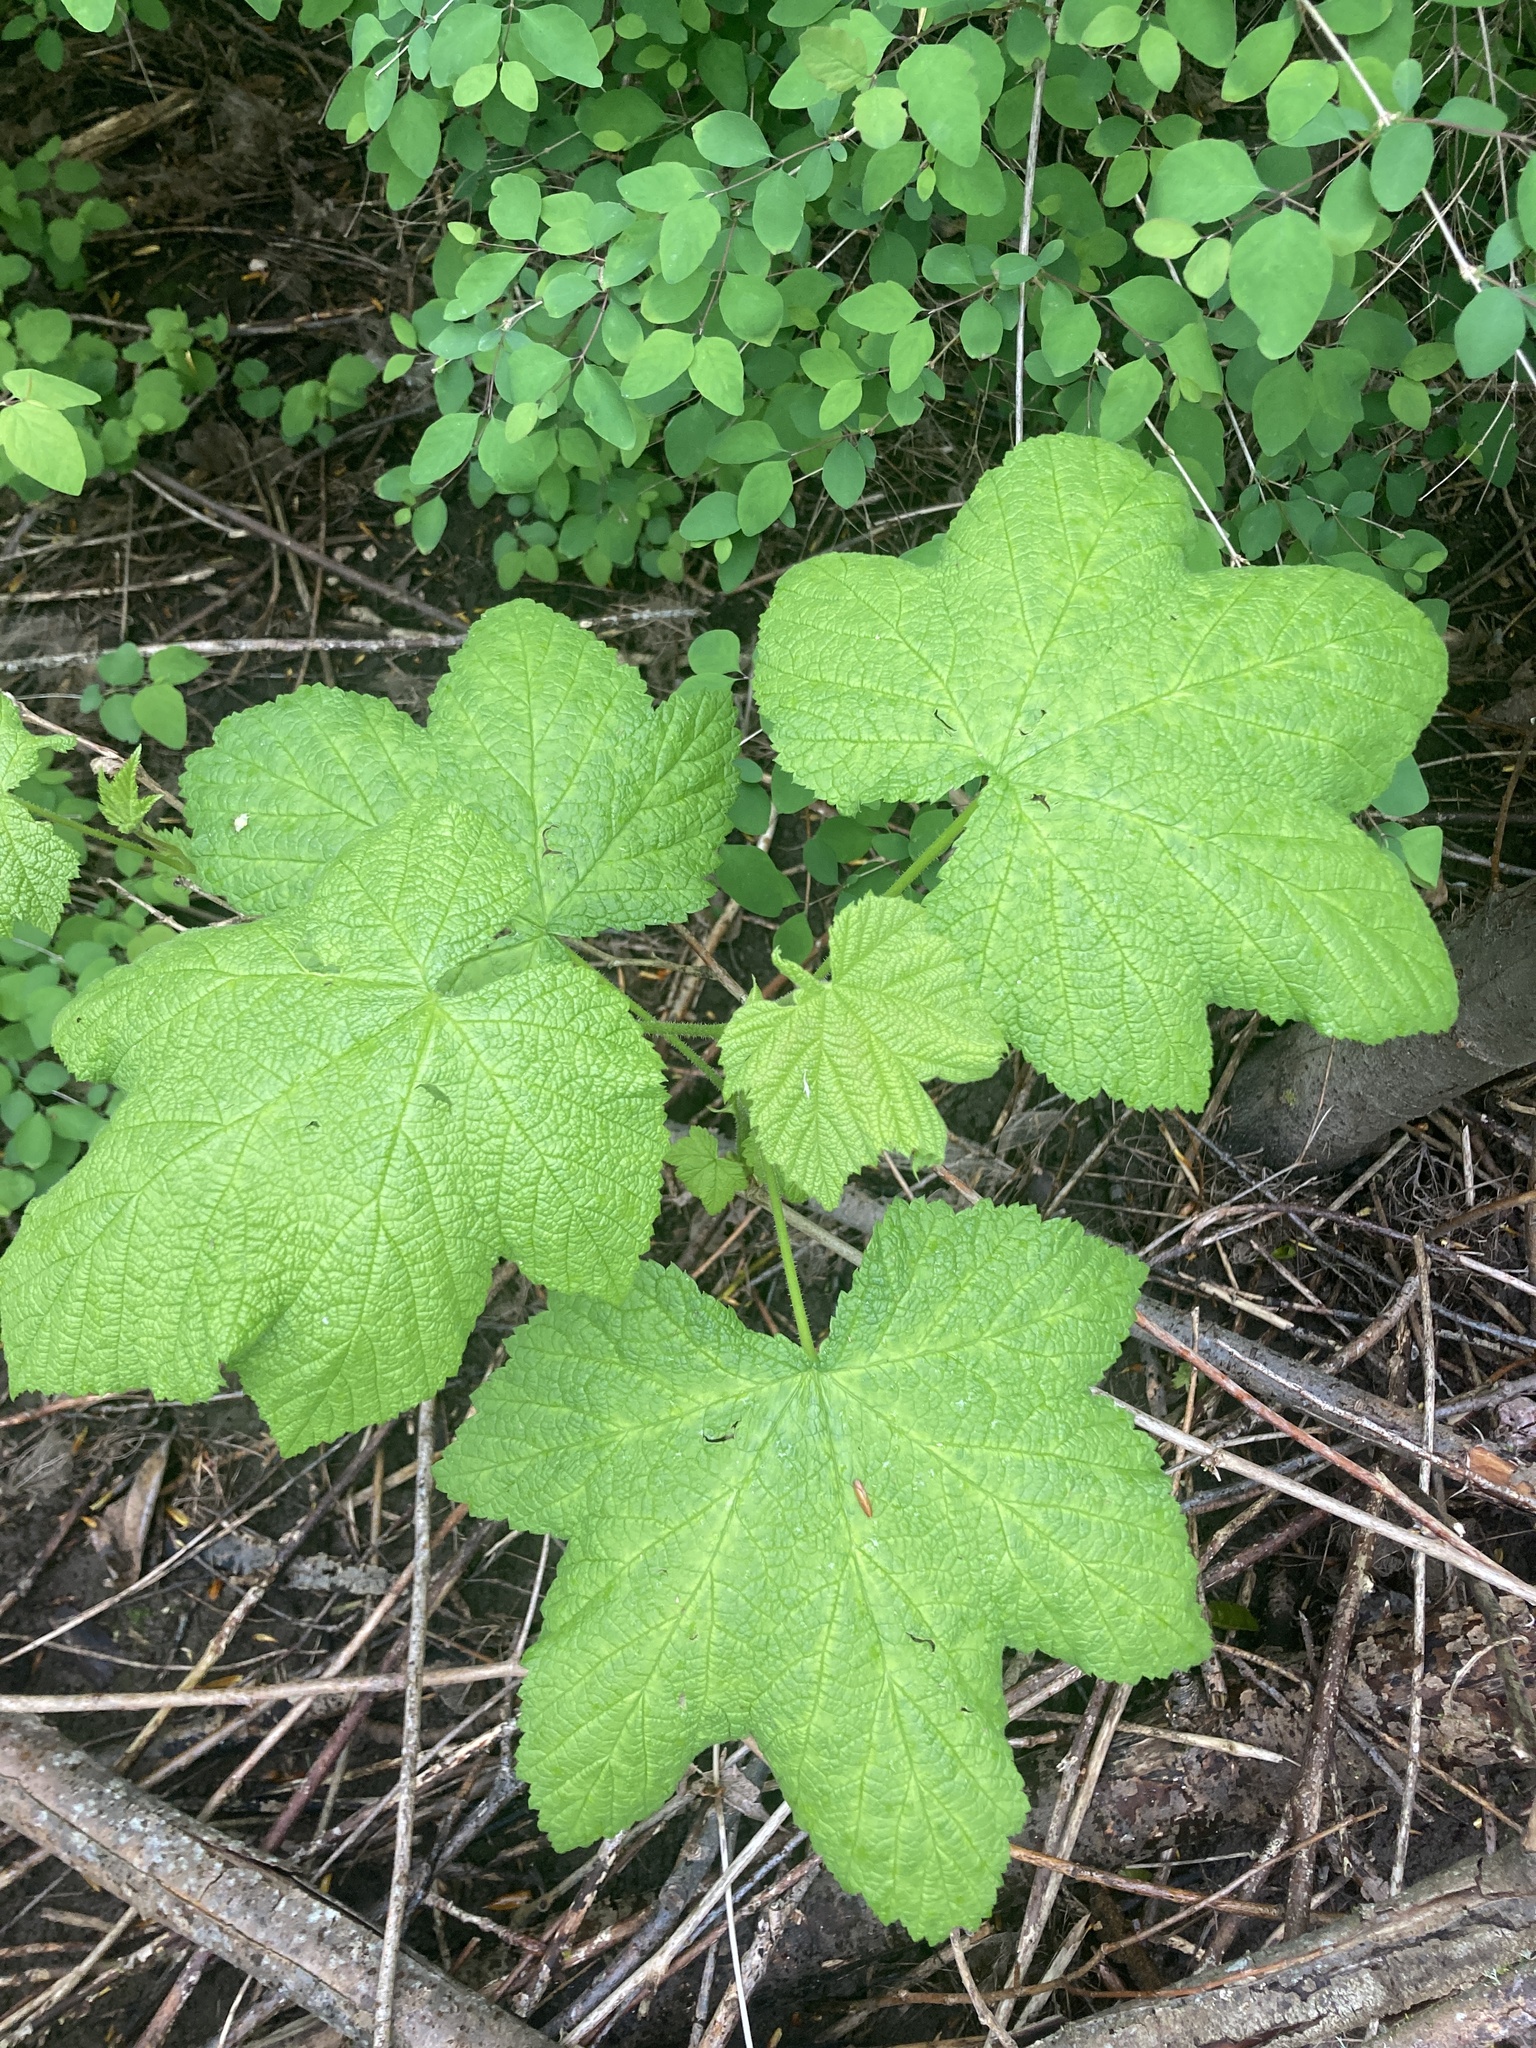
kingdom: Plantae
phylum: Tracheophyta
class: Magnoliopsida
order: Rosales
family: Rosaceae
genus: Rubus
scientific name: Rubus parviflorus
